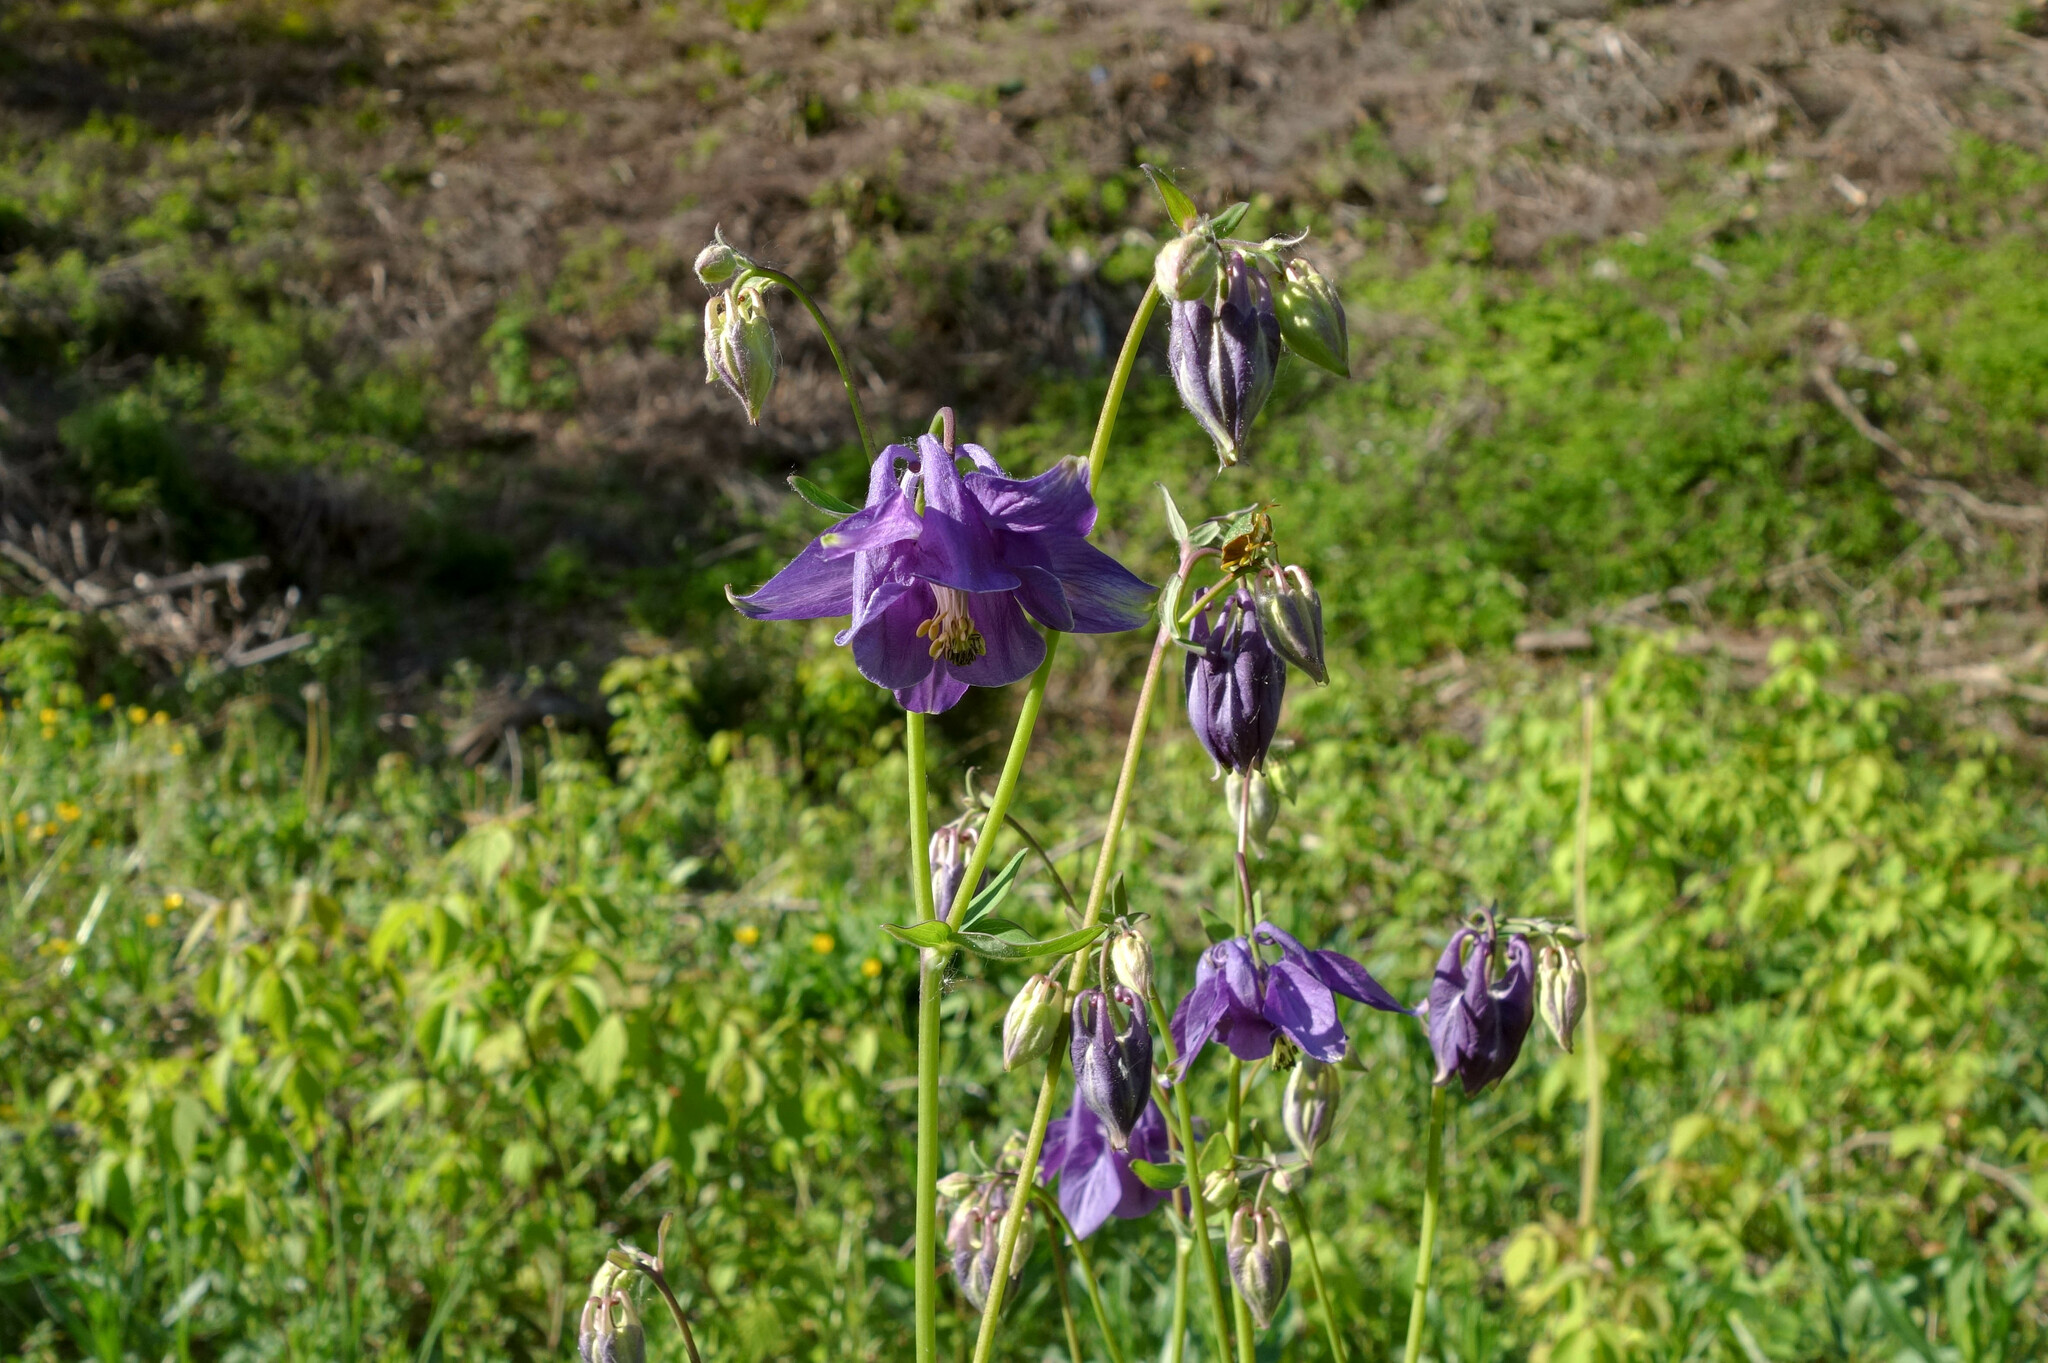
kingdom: Plantae
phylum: Tracheophyta
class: Magnoliopsida
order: Ranunculales
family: Ranunculaceae
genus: Aquilegia
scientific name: Aquilegia vulgaris
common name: Columbine
